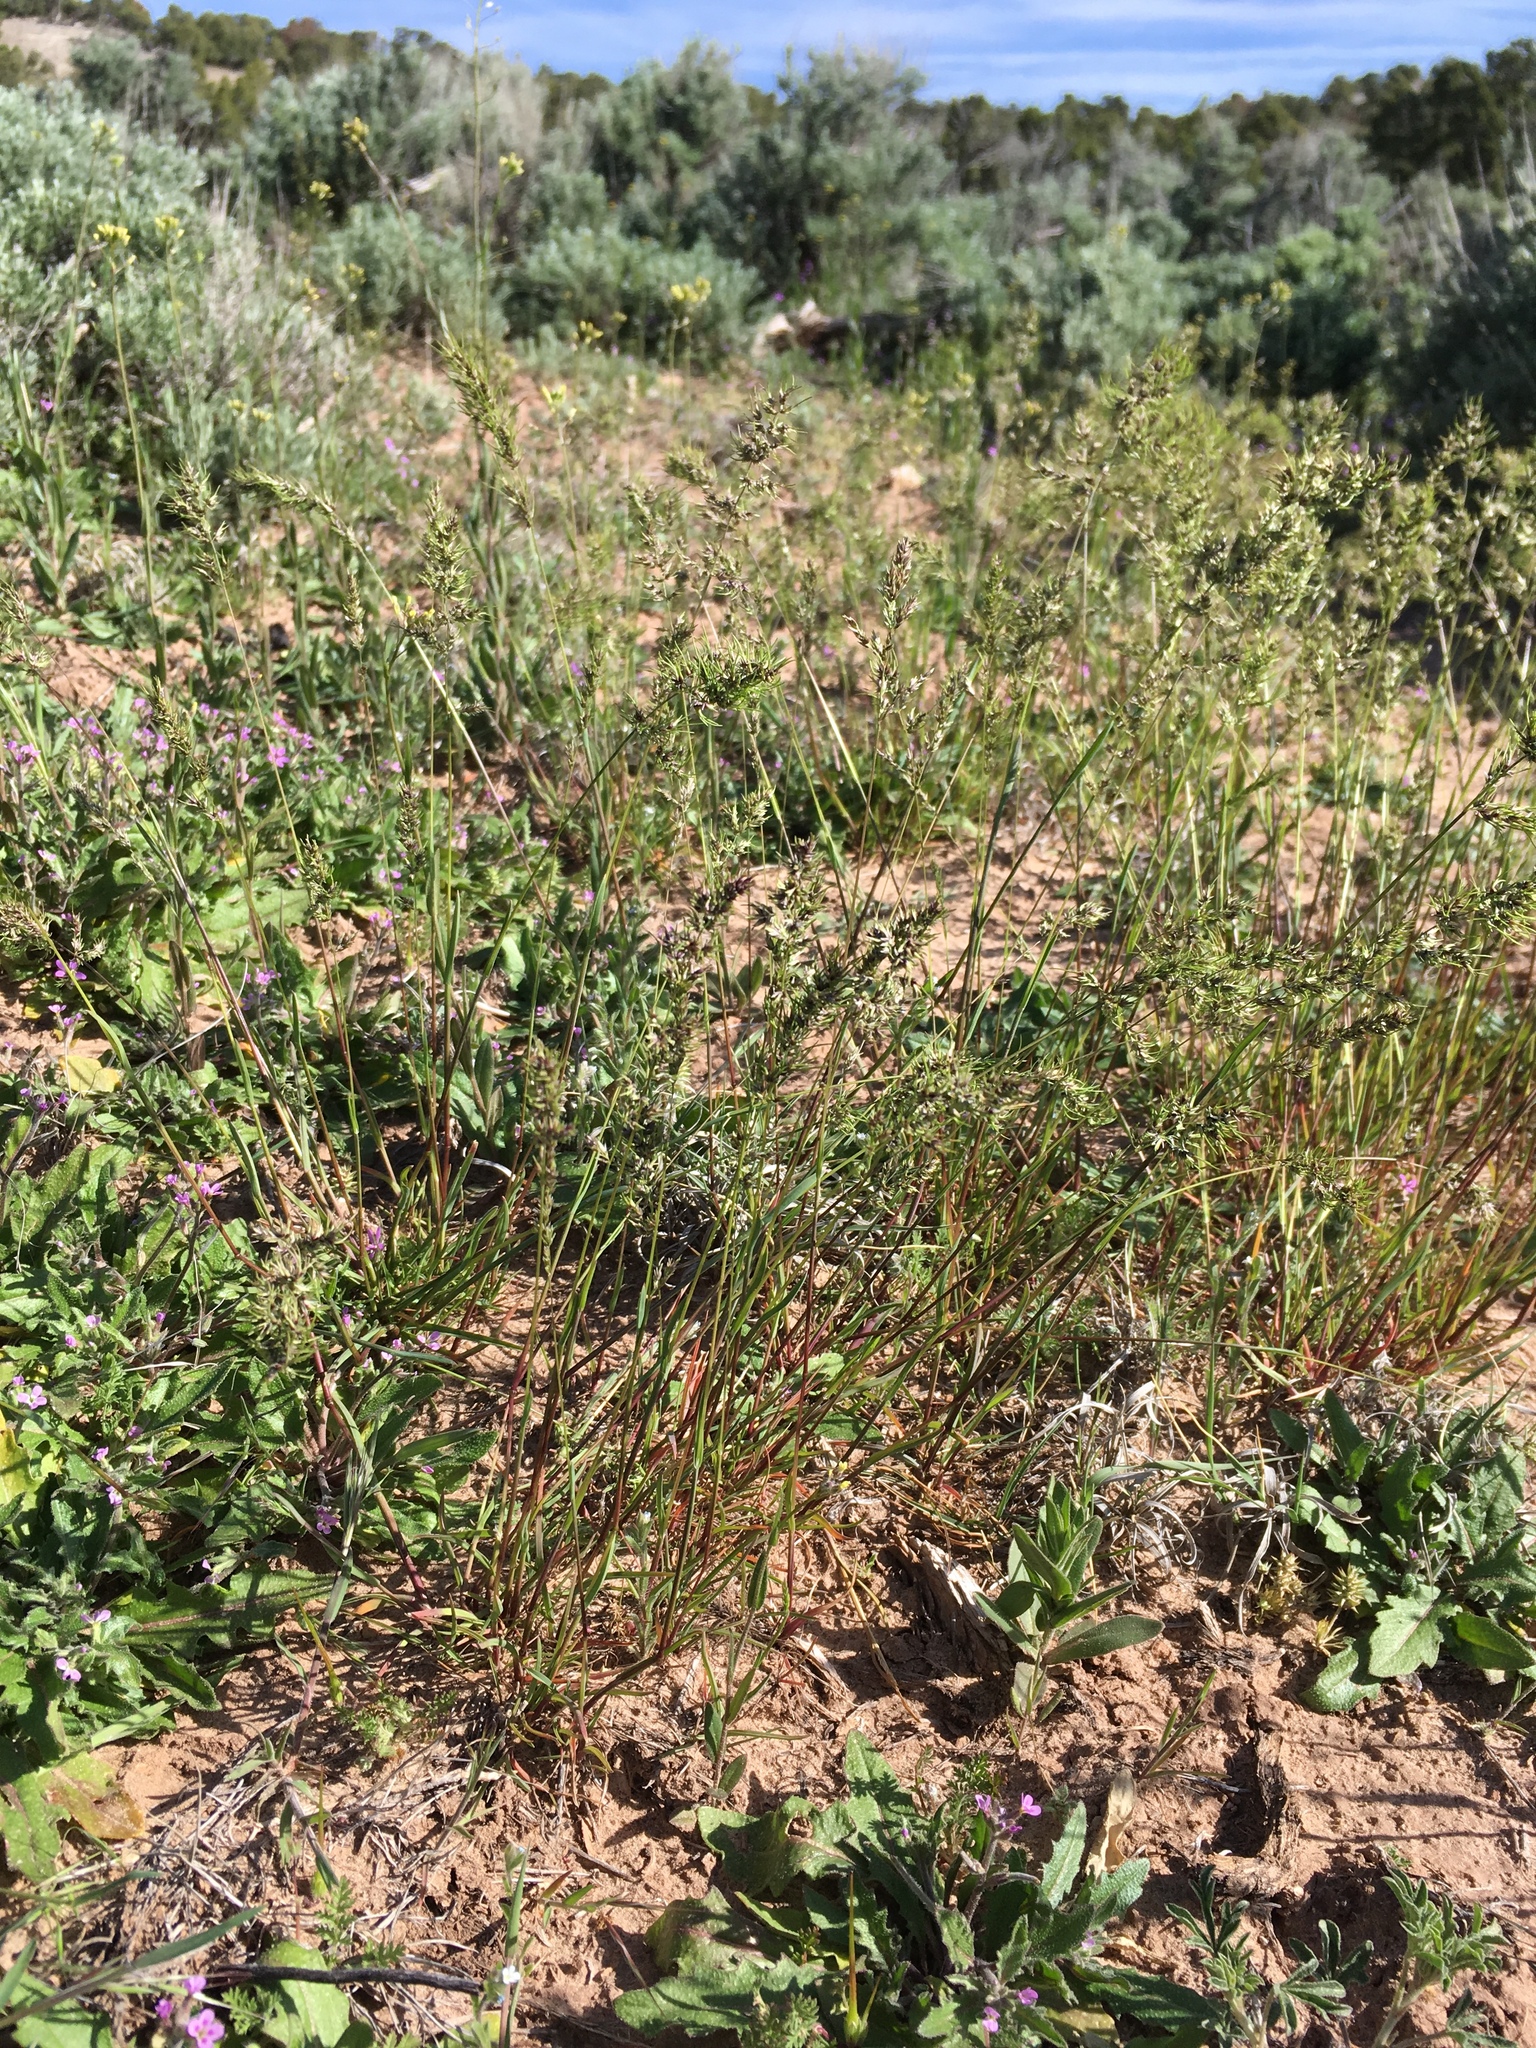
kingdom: Plantae
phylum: Tracheophyta
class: Liliopsida
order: Poales
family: Poaceae
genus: Poa
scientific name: Poa bulbosa
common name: Bulbous bluegrass
